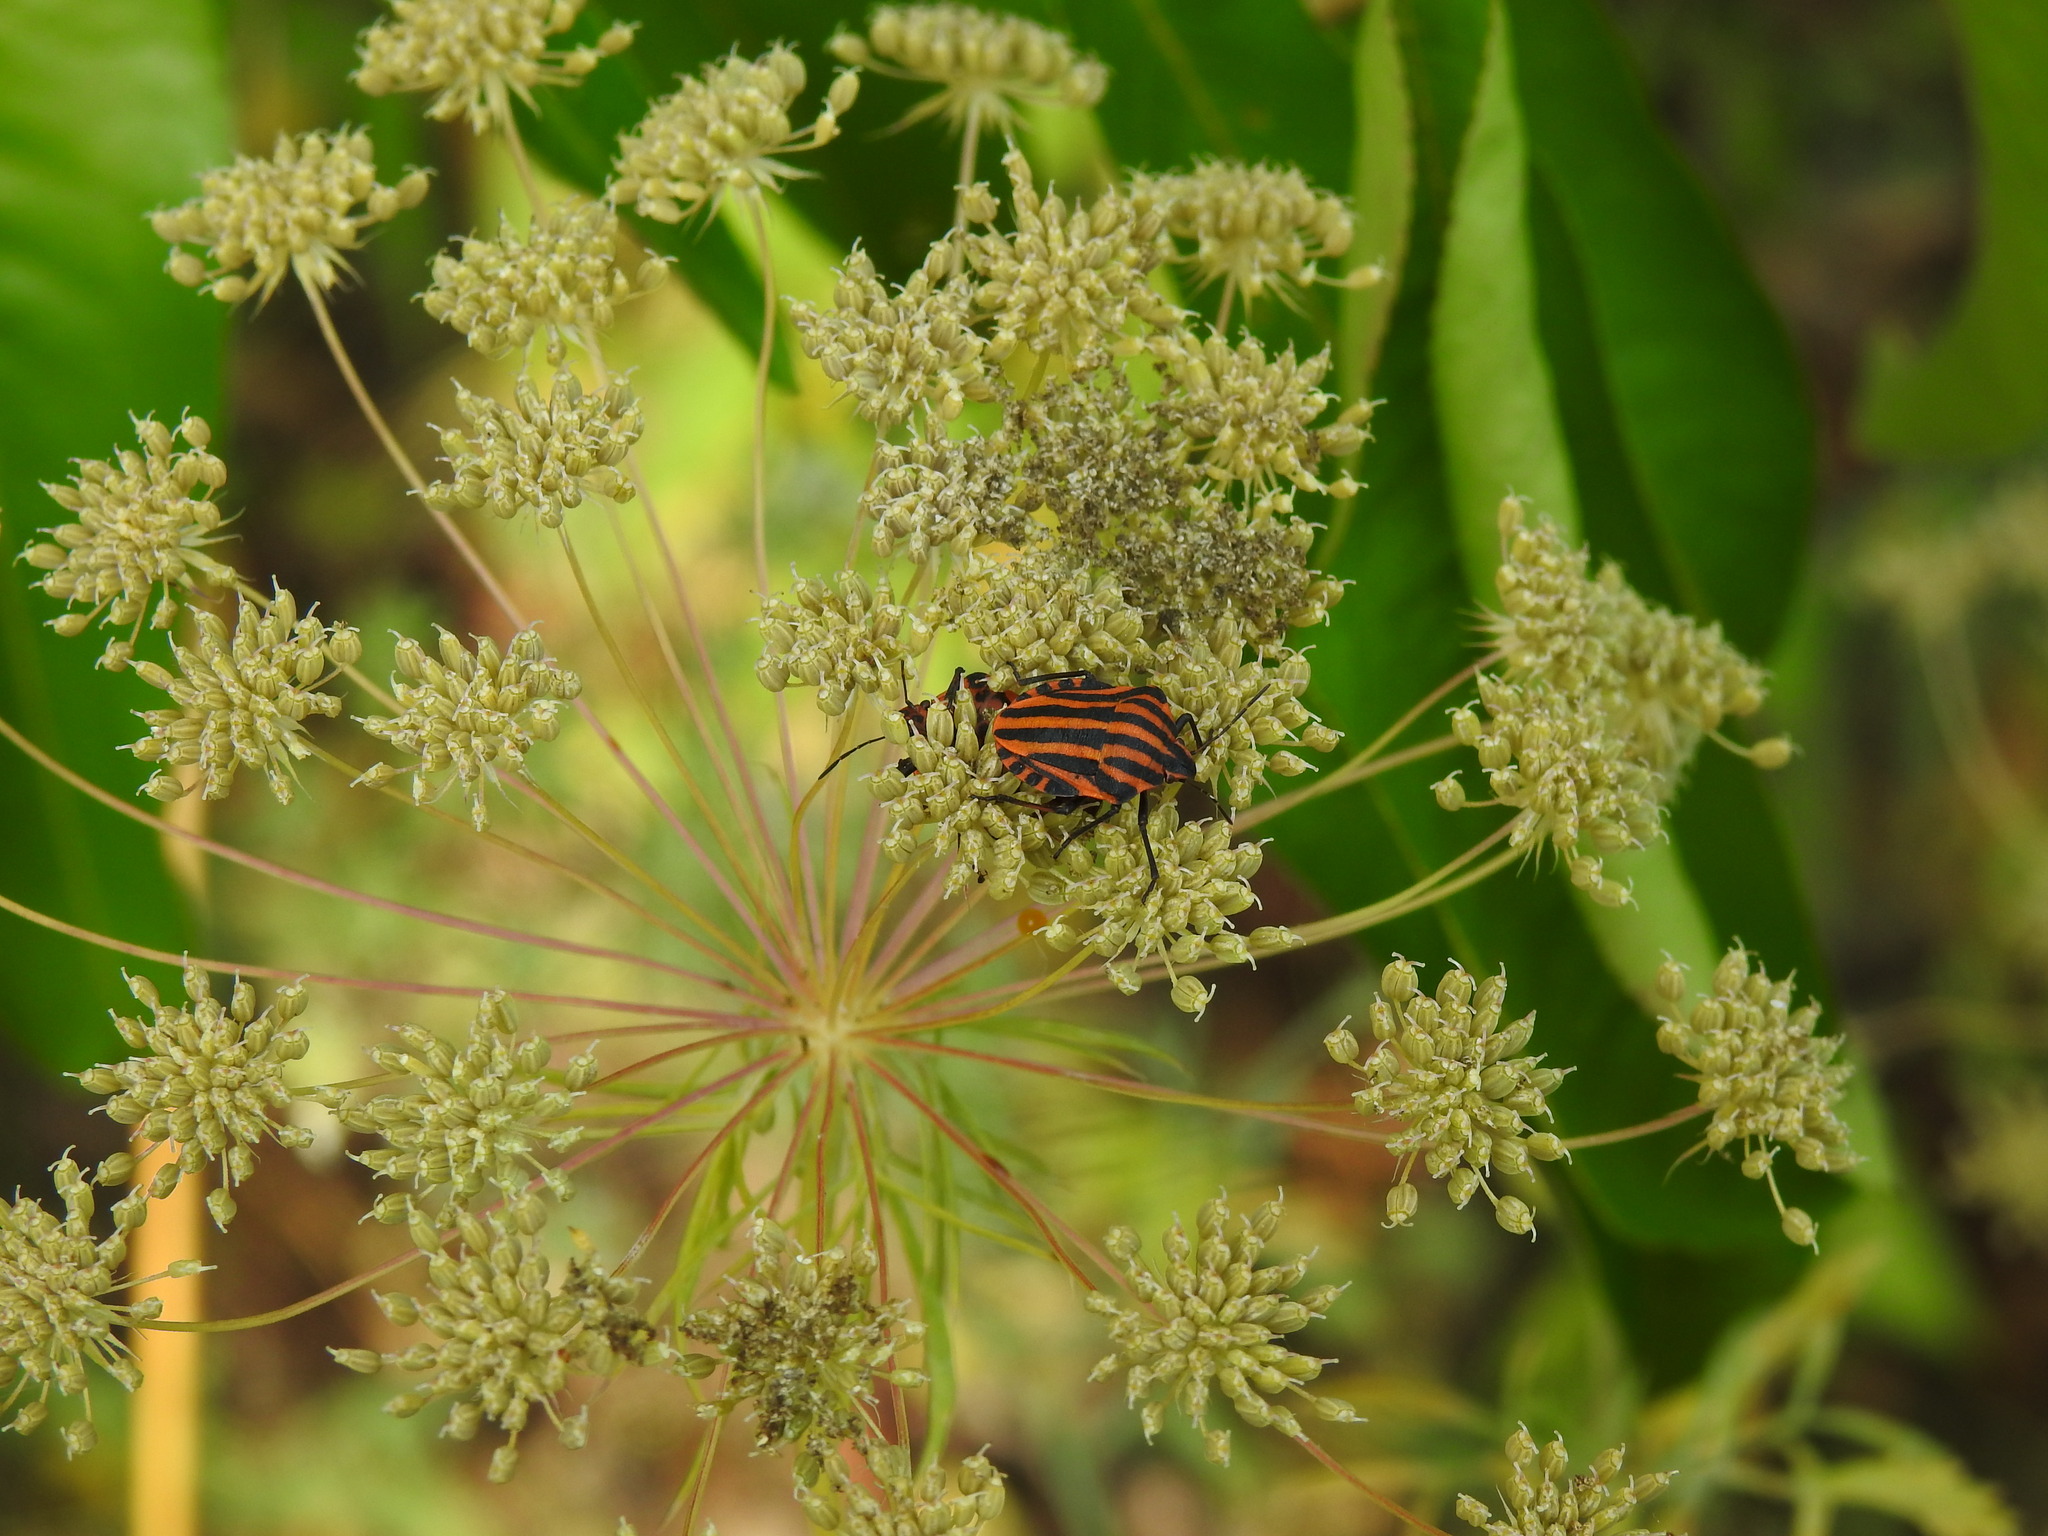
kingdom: Animalia
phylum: Arthropoda
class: Insecta
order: Hemiptera
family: Pentatomidae
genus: Graphosoma
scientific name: Graphosoma italicum
